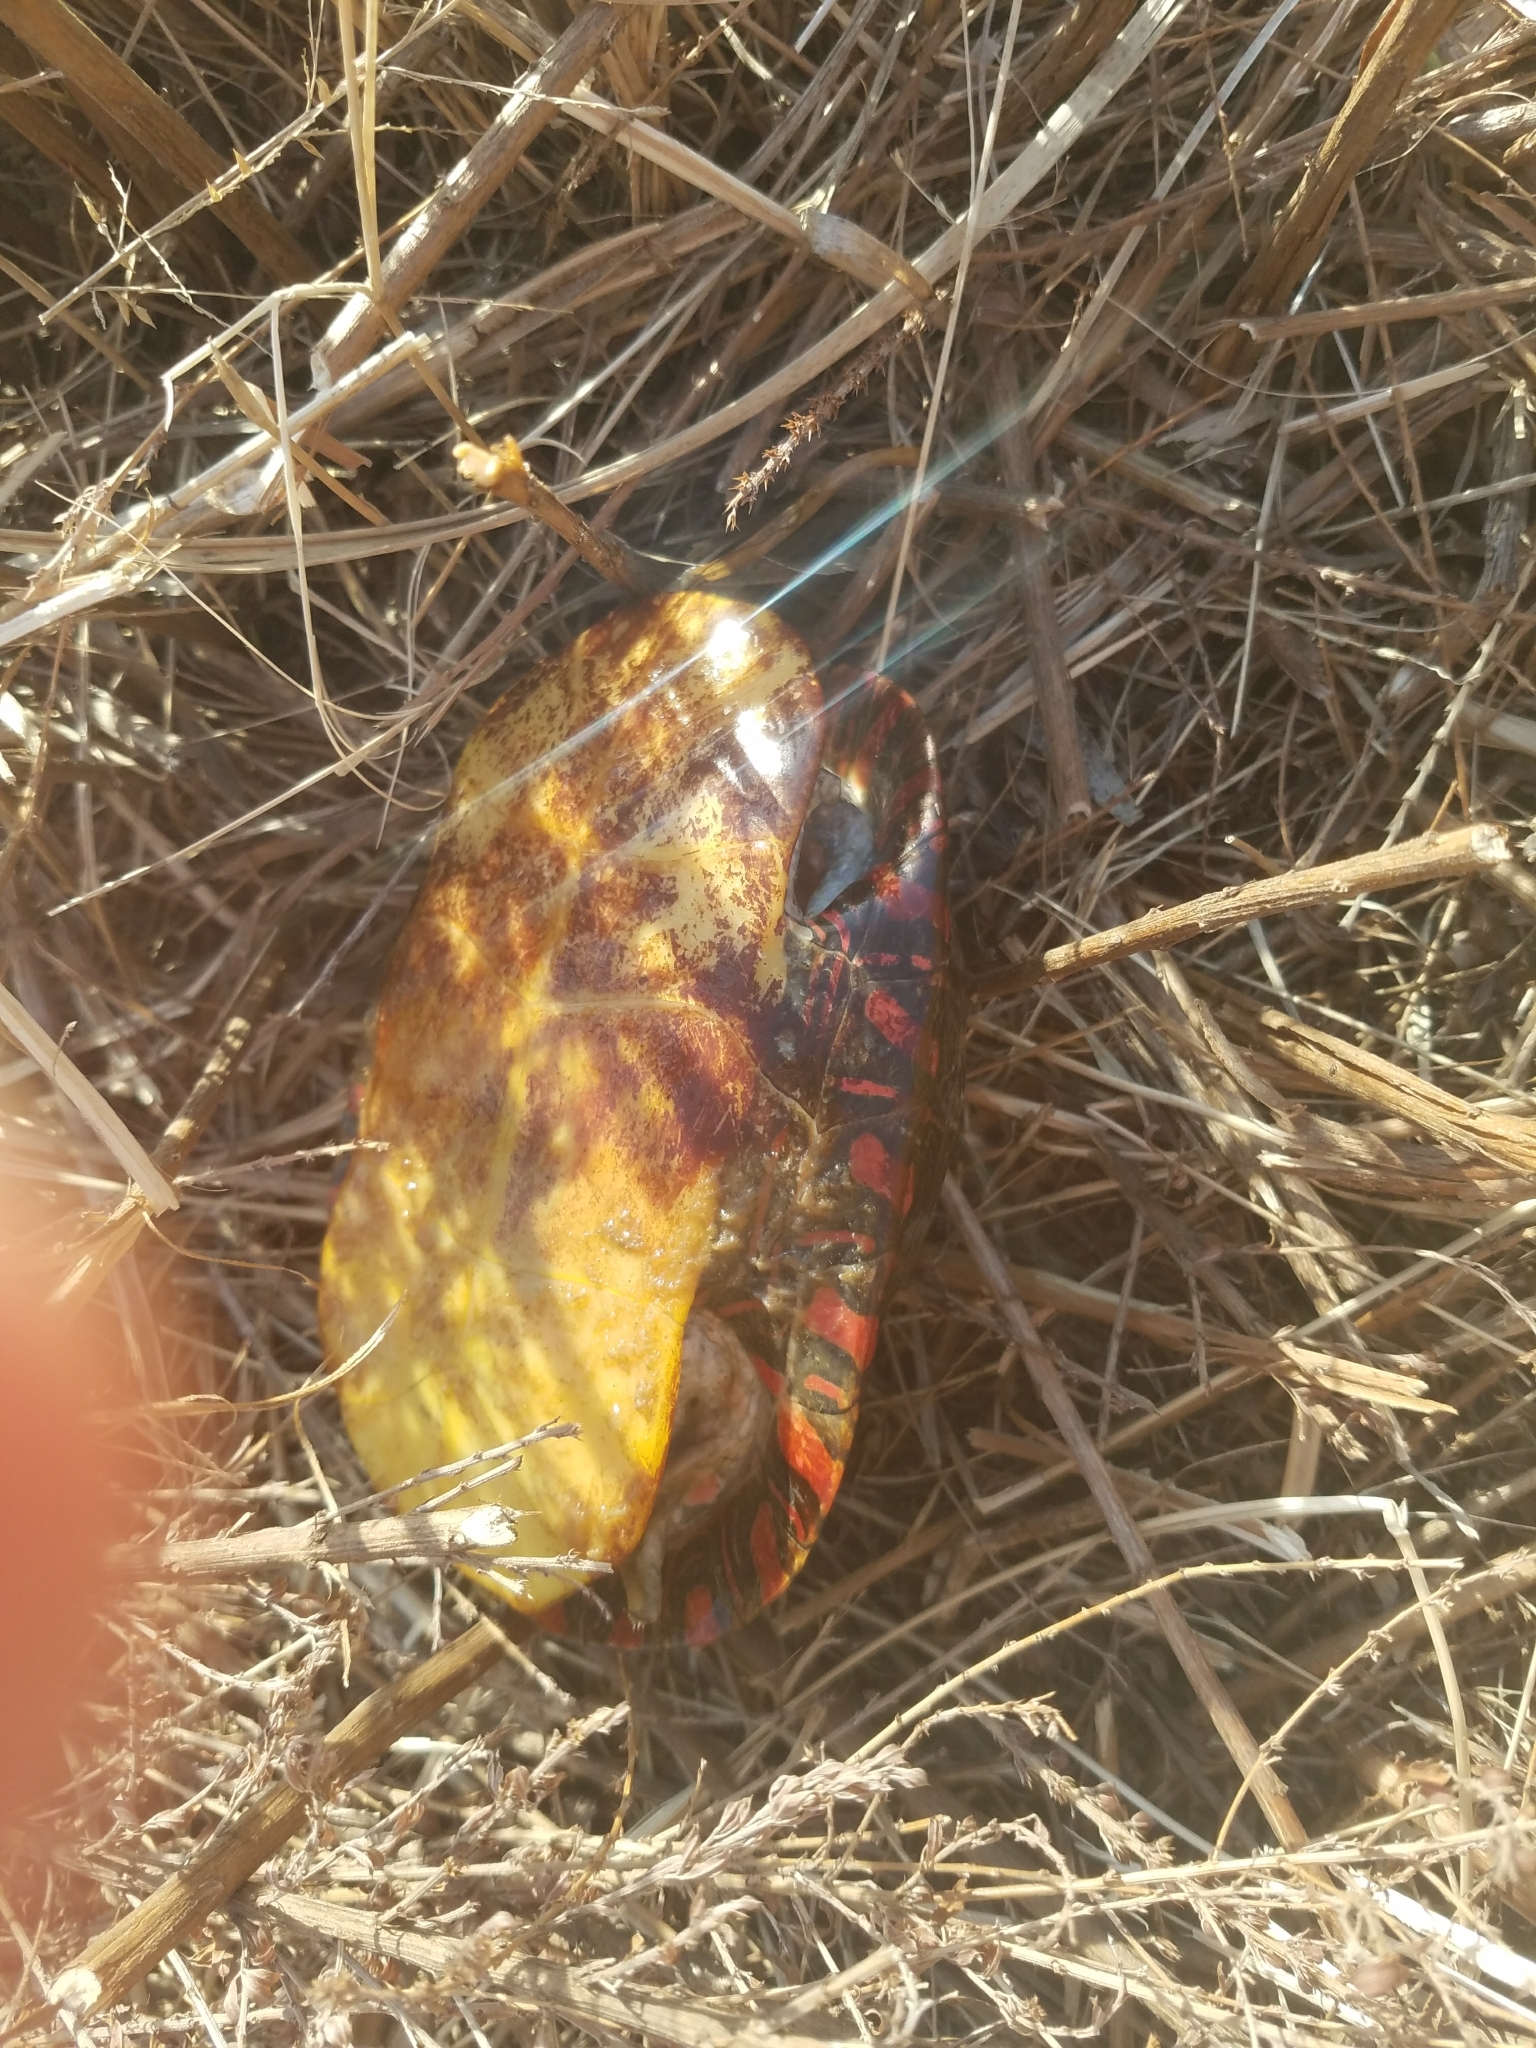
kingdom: Animalia
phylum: Chordata
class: Testudines
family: Emydidae
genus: Chrysemys
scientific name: Chrysemys picta
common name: Painted turtle
